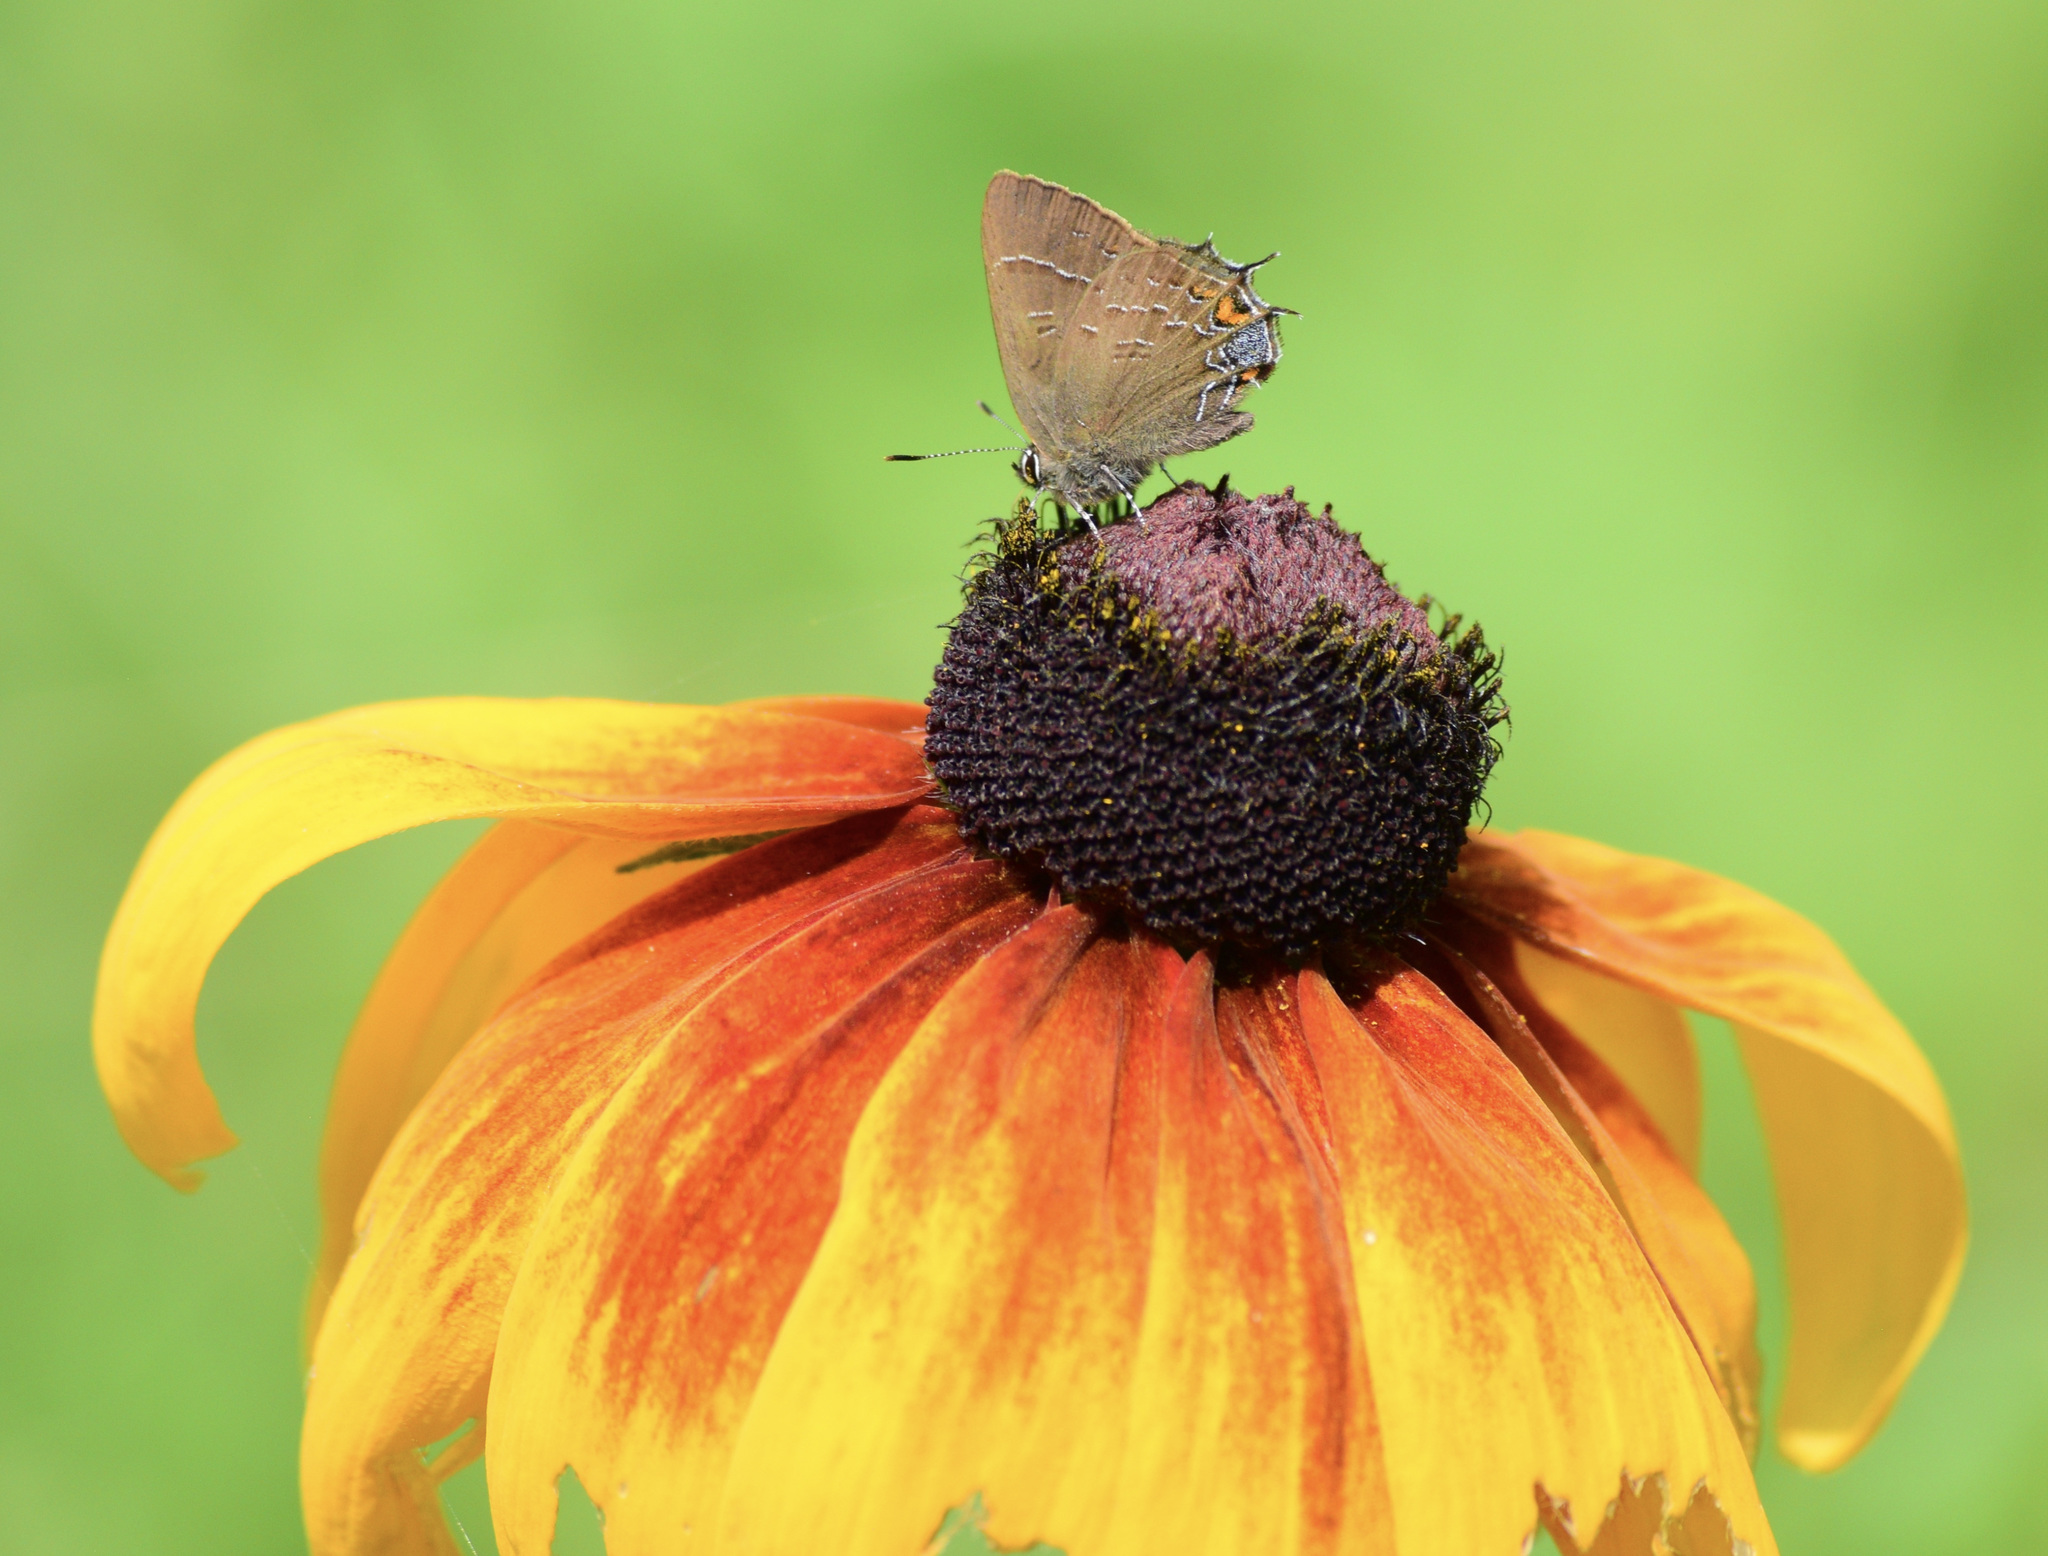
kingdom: Animalia
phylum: Arthropoda
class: Insecta
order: Lepidoptera
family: Lycaenidae
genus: Satyrium
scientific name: Satyrium calanus
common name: Banded hairstreak
